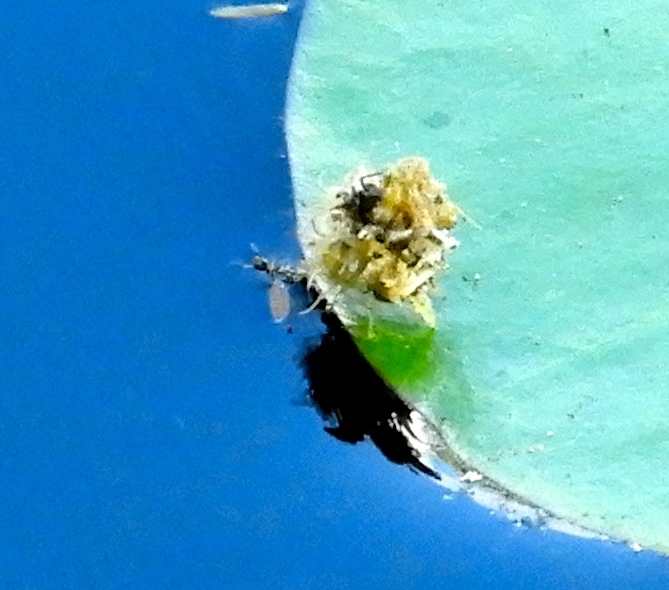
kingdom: Animalia
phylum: Arthropoda
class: Insecta
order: Neuroptera
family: Chrysopidae
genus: Ceraeochrysa
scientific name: Ceraeochrysa
